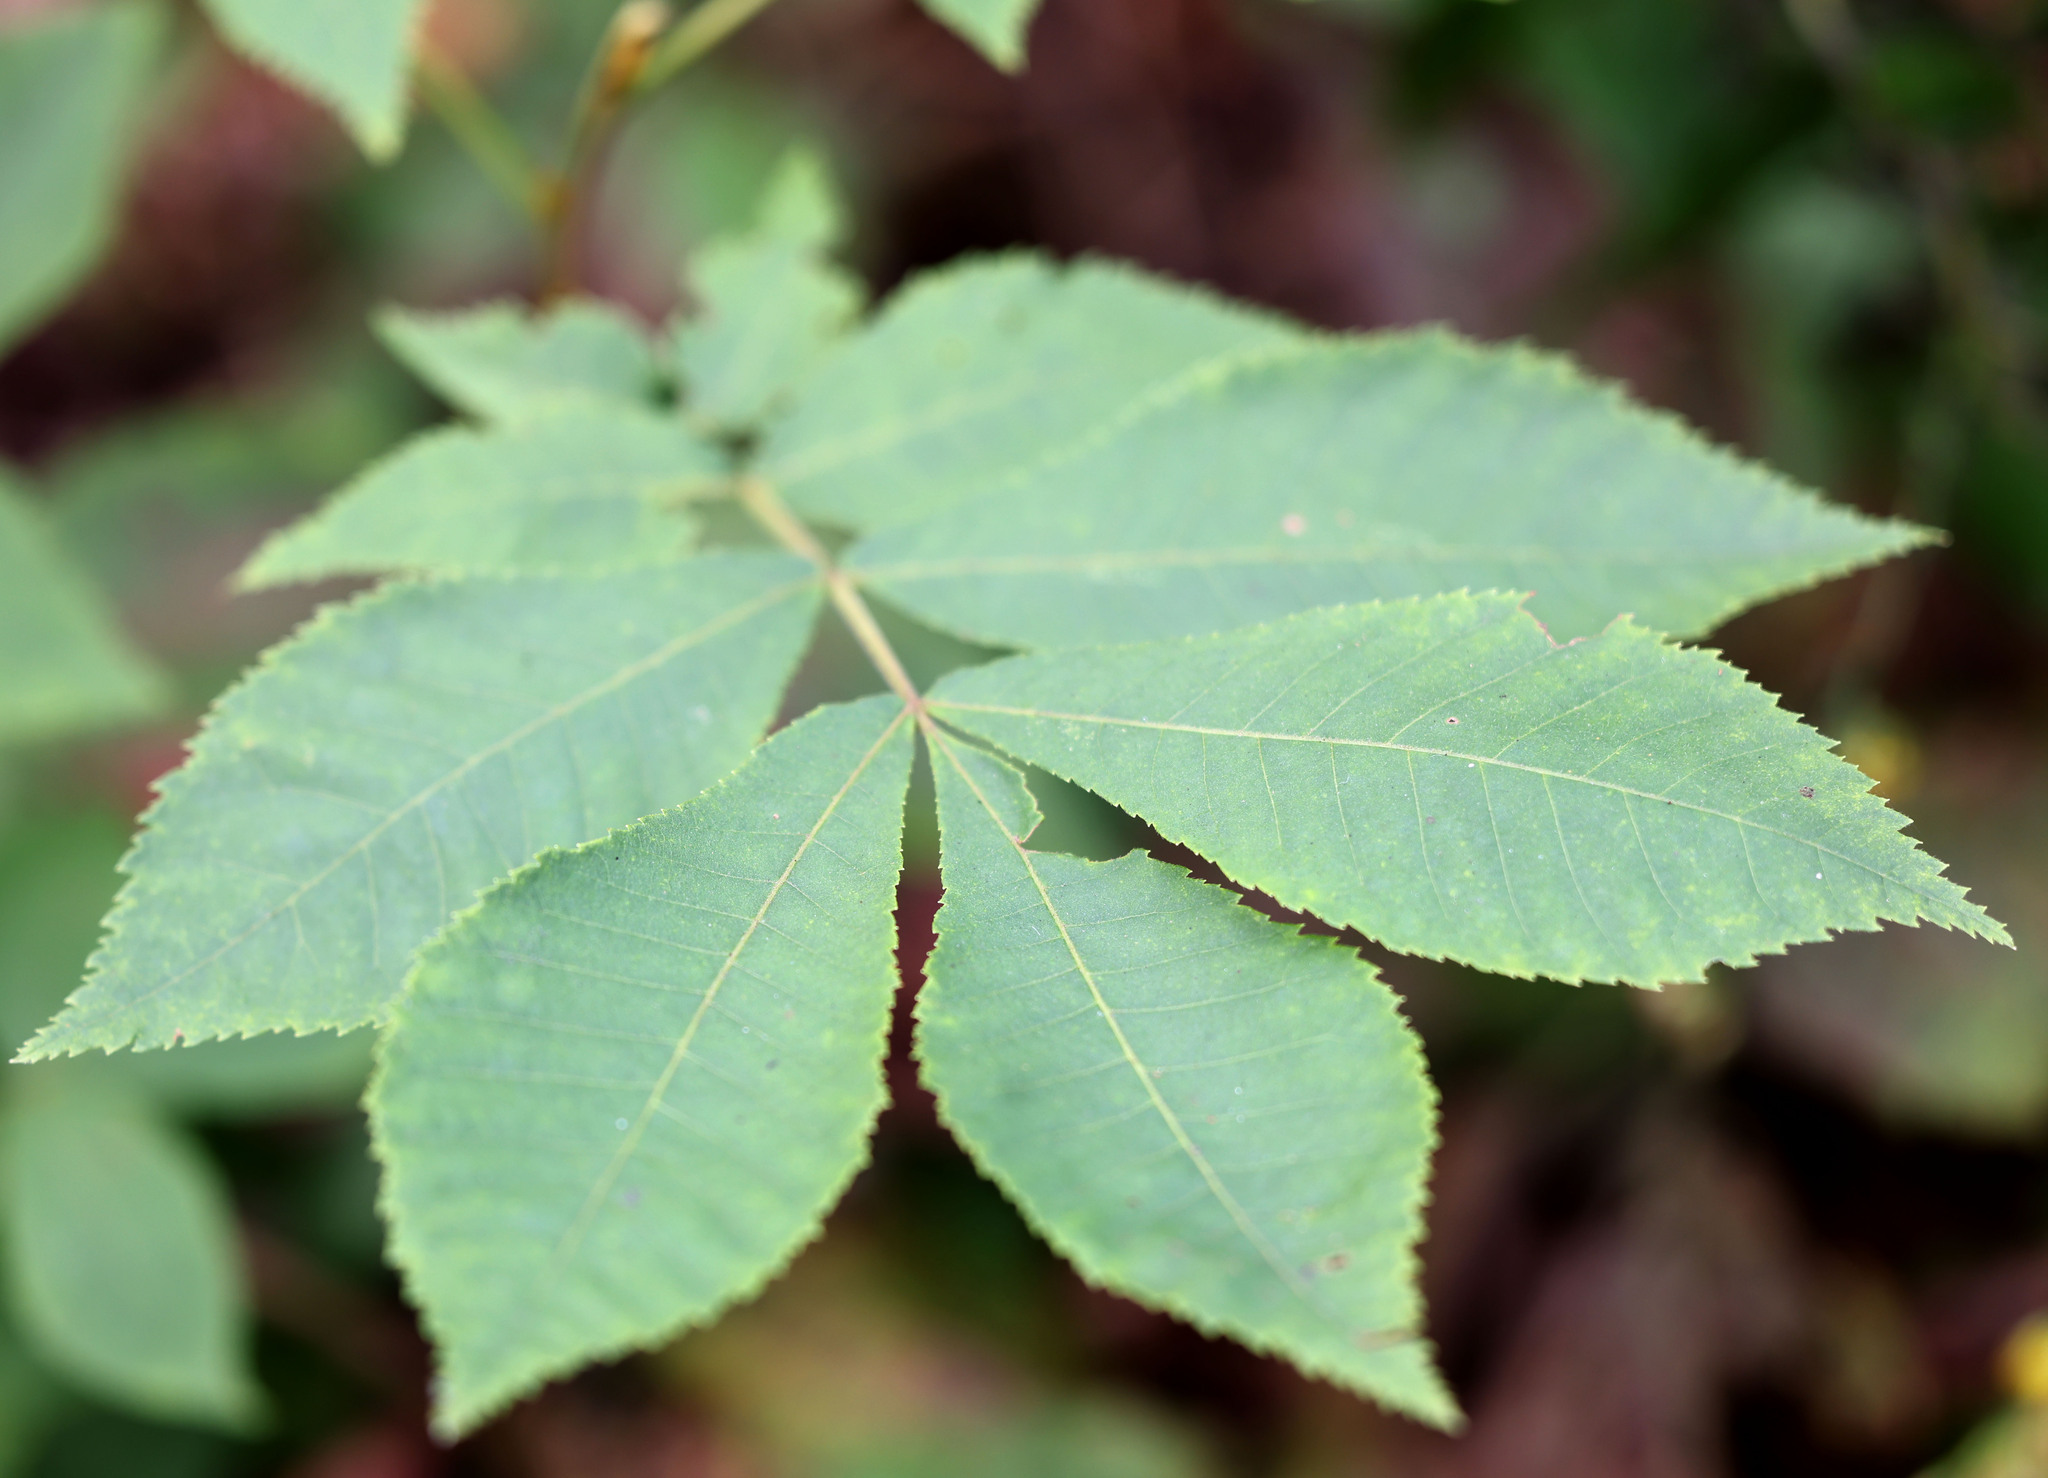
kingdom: Plantae
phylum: Tracheophyta
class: Magnoliopsida
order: Fagales
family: Juglandaceae
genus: Carya
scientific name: Carya cordiformis
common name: Bitternut hickory
